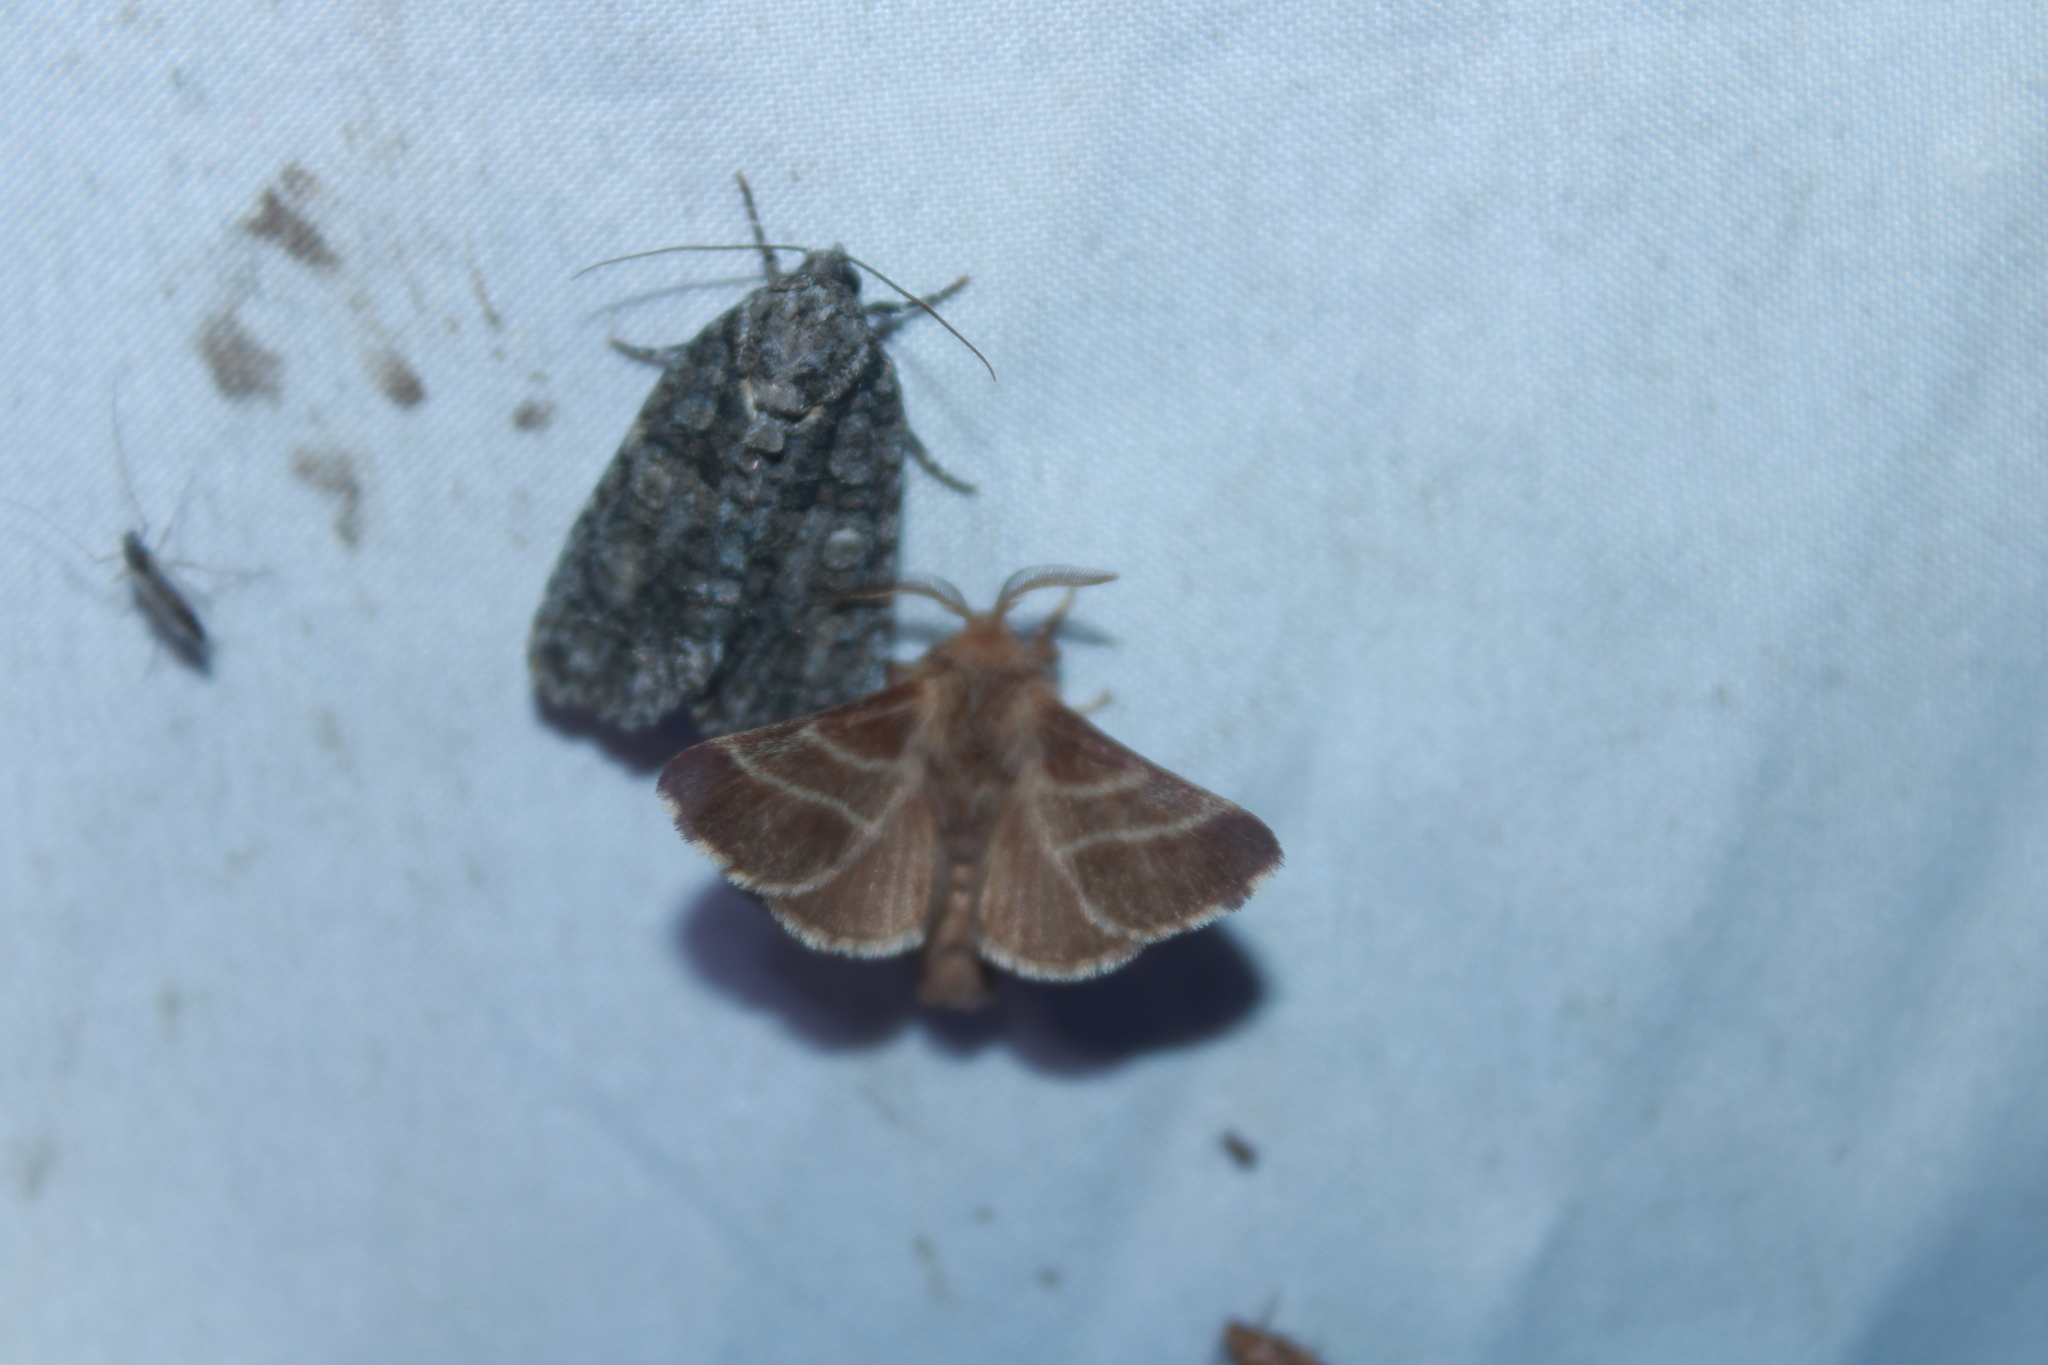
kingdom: Animalia
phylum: Arthropoda
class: Insecta
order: Lepidoptera
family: Lasiocampidae
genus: Malacosoma
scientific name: Malacosoma americana
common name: Eastern tent caterpillar moth
